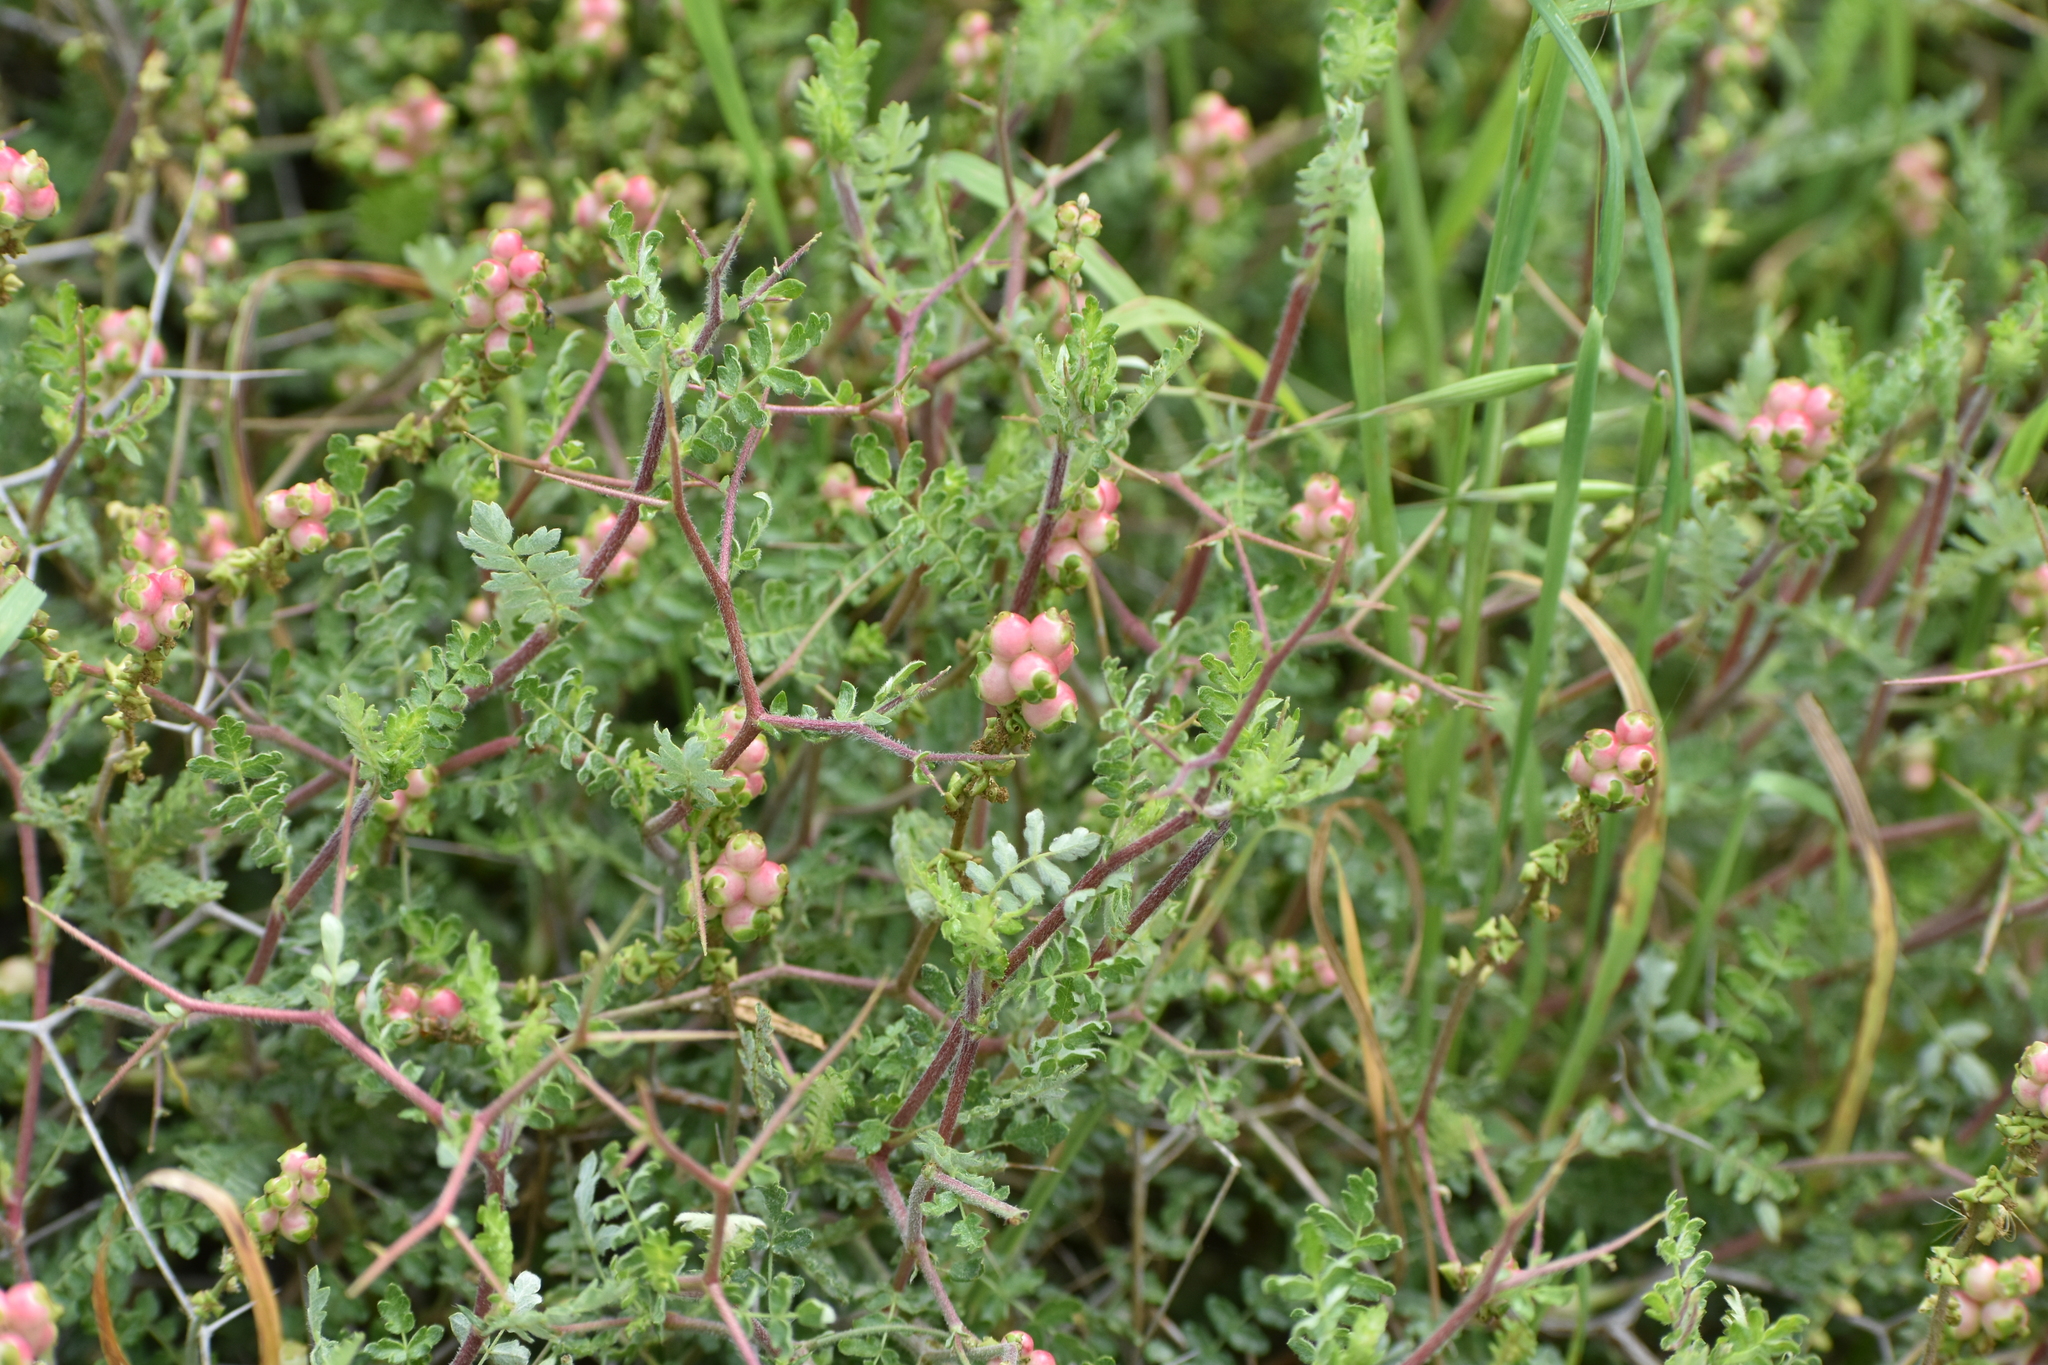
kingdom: Plantae
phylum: Tracheophyta
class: Magnoliopsida
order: Rosales
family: Rosaceae
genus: Sarcopoterium
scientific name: Sarcopoterium spinosum
